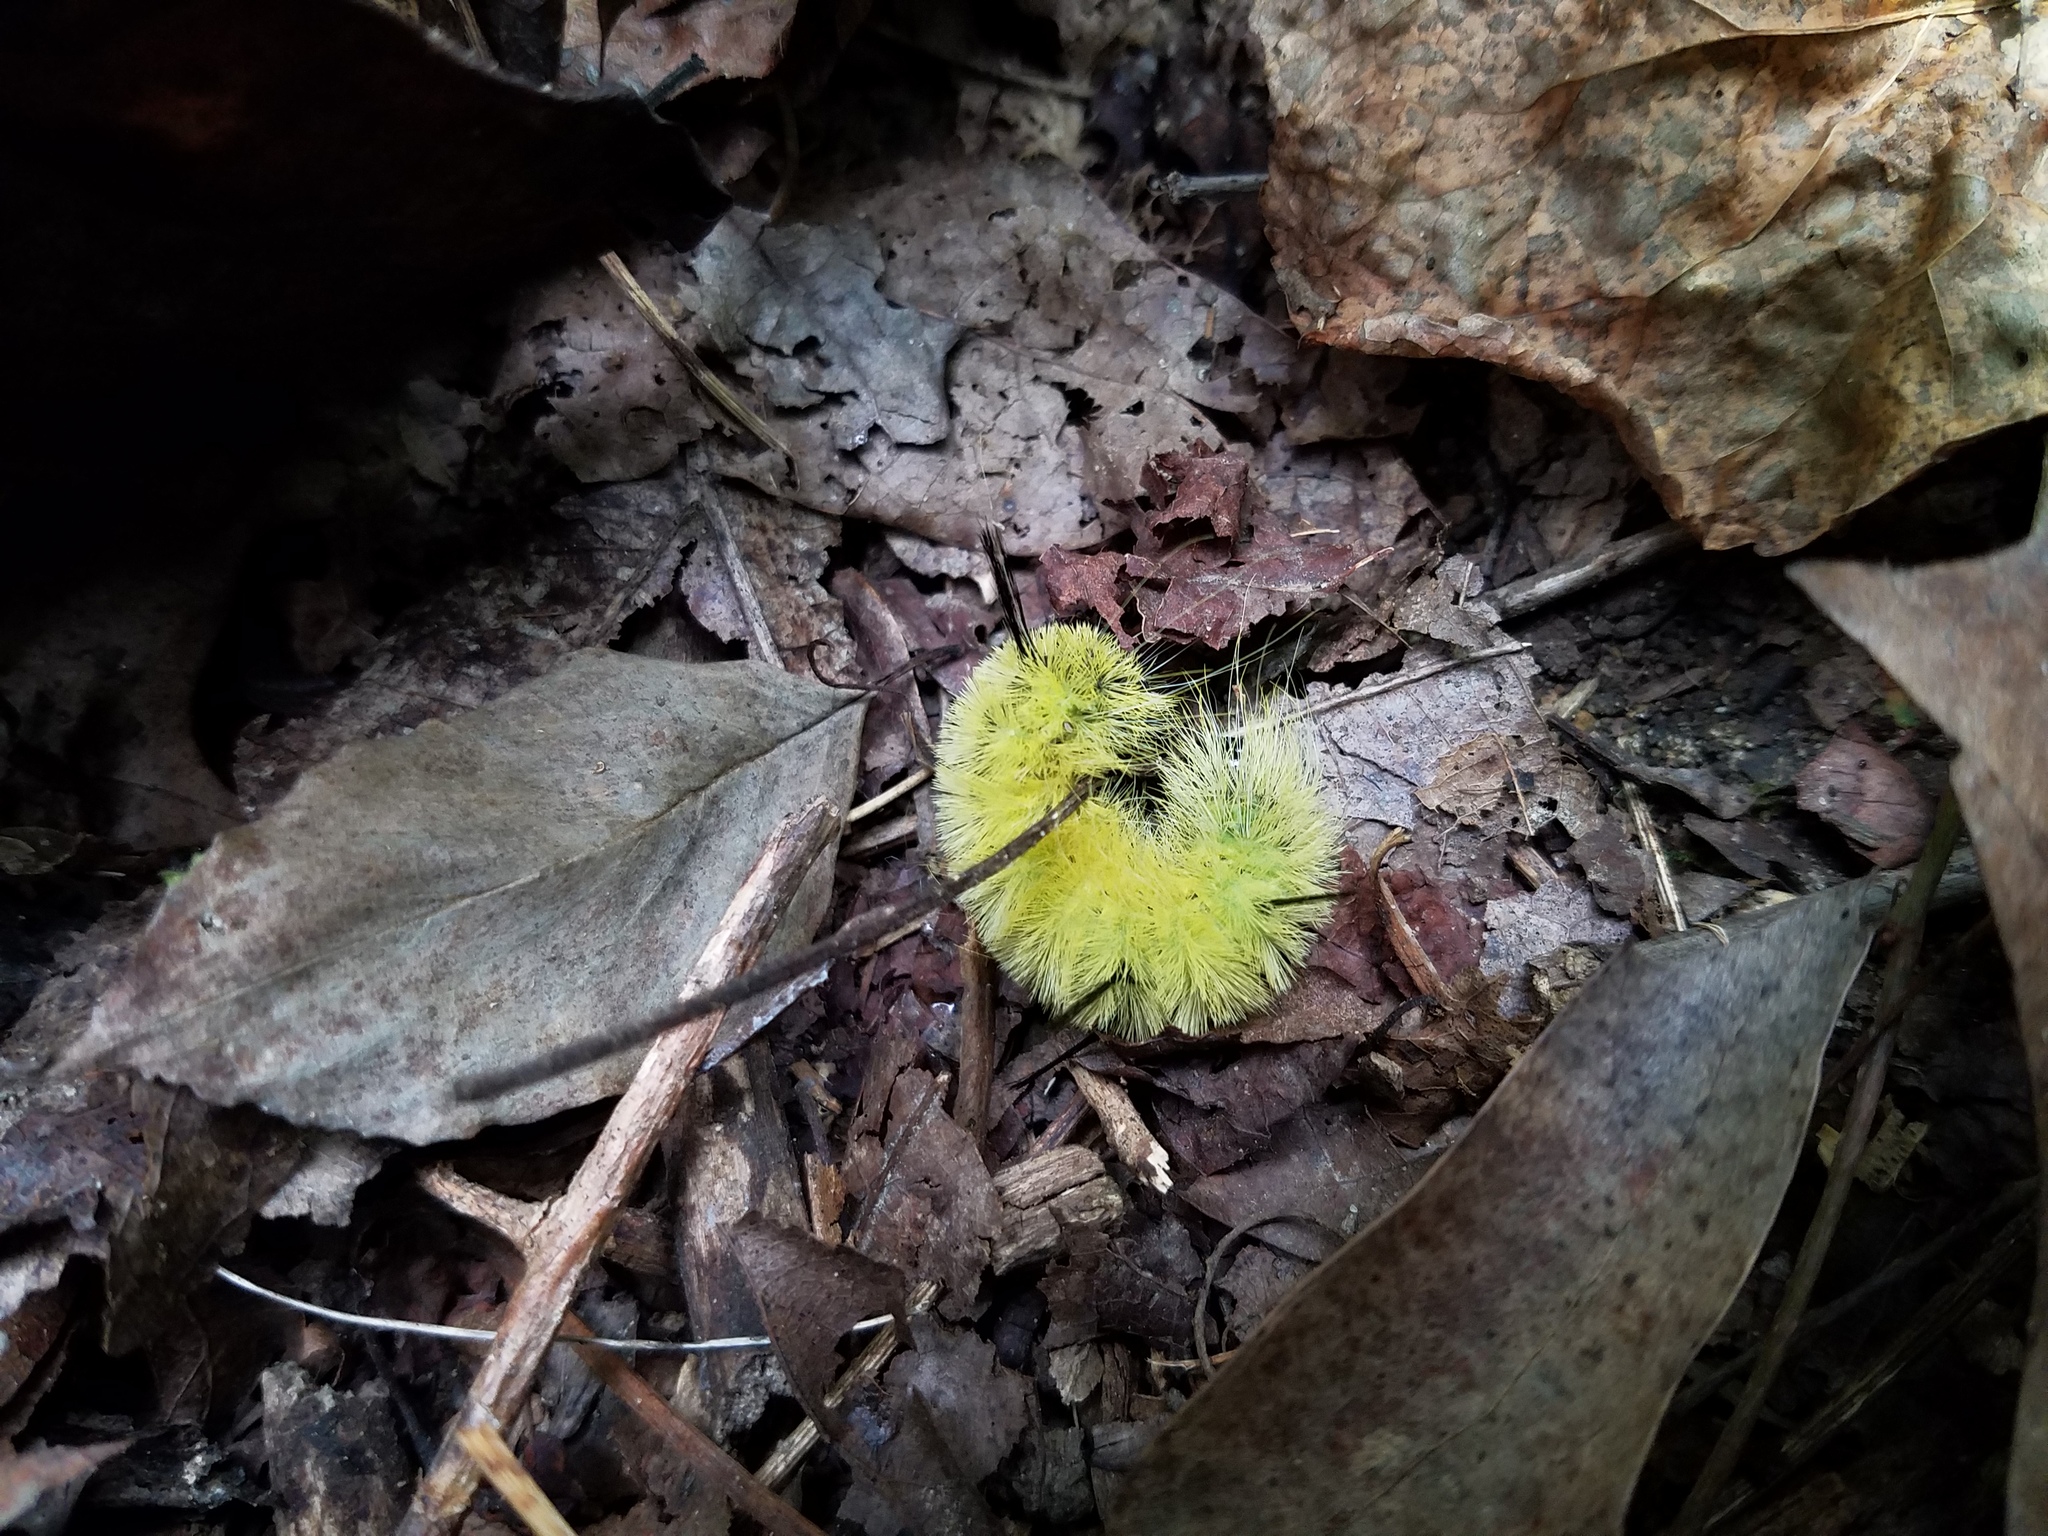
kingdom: Animalia
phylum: Arthropoda
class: Insecta
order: Lepidoptera
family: Noctuidae
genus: Acronicta
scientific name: Acronicta americana
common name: American dagger
